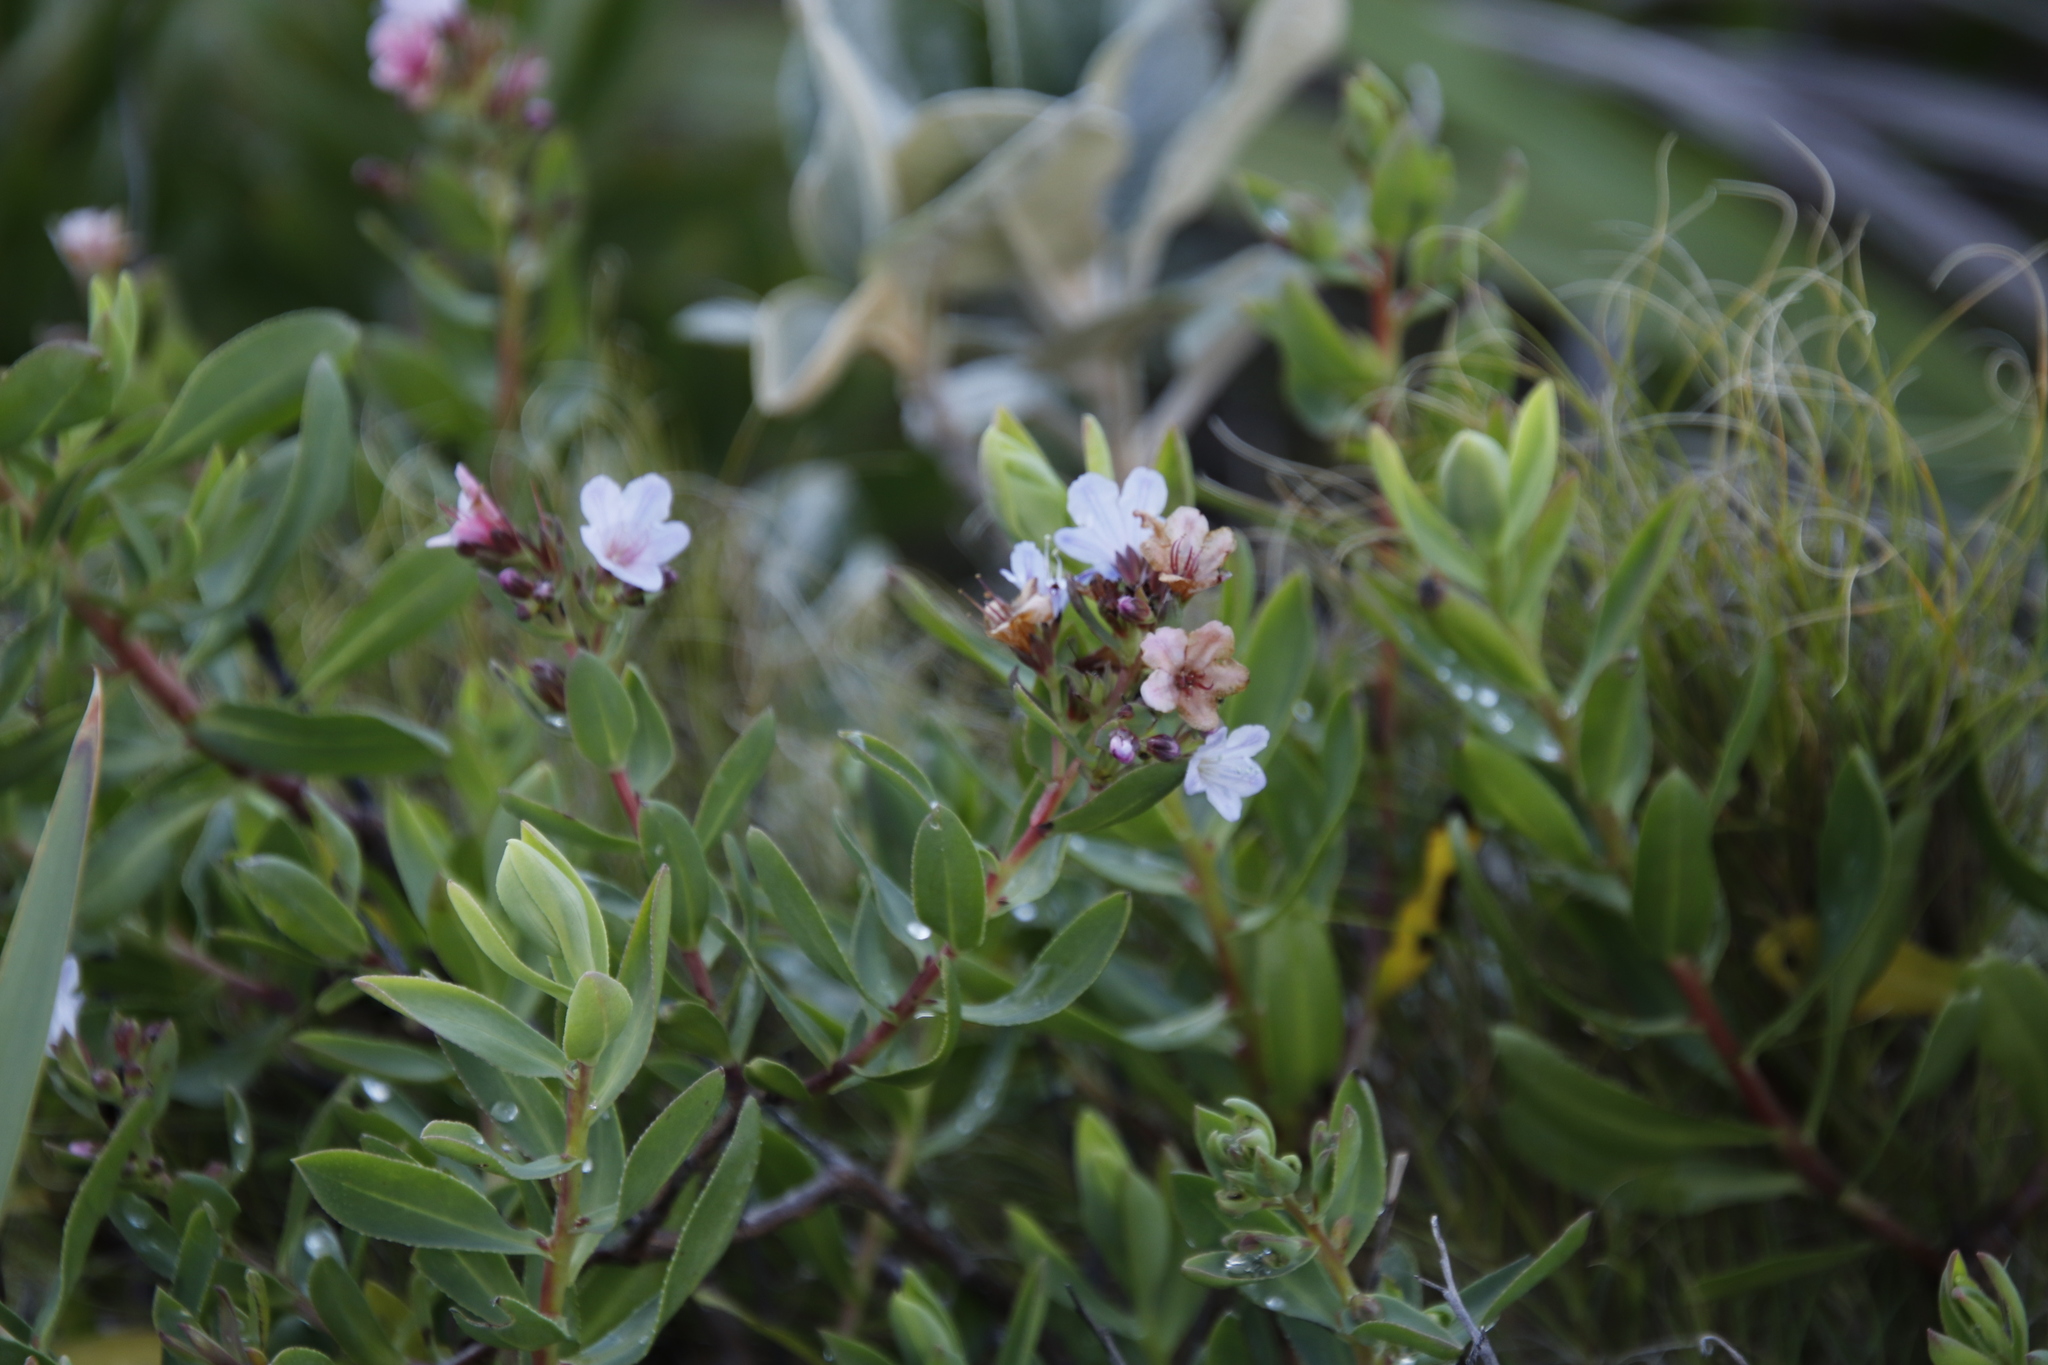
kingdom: Plantae
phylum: Tracheophyta
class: Magnoliopsida
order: Boraginales
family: Boraginaceae
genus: Lobostemon
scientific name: Lobostemon glaucophyllus
